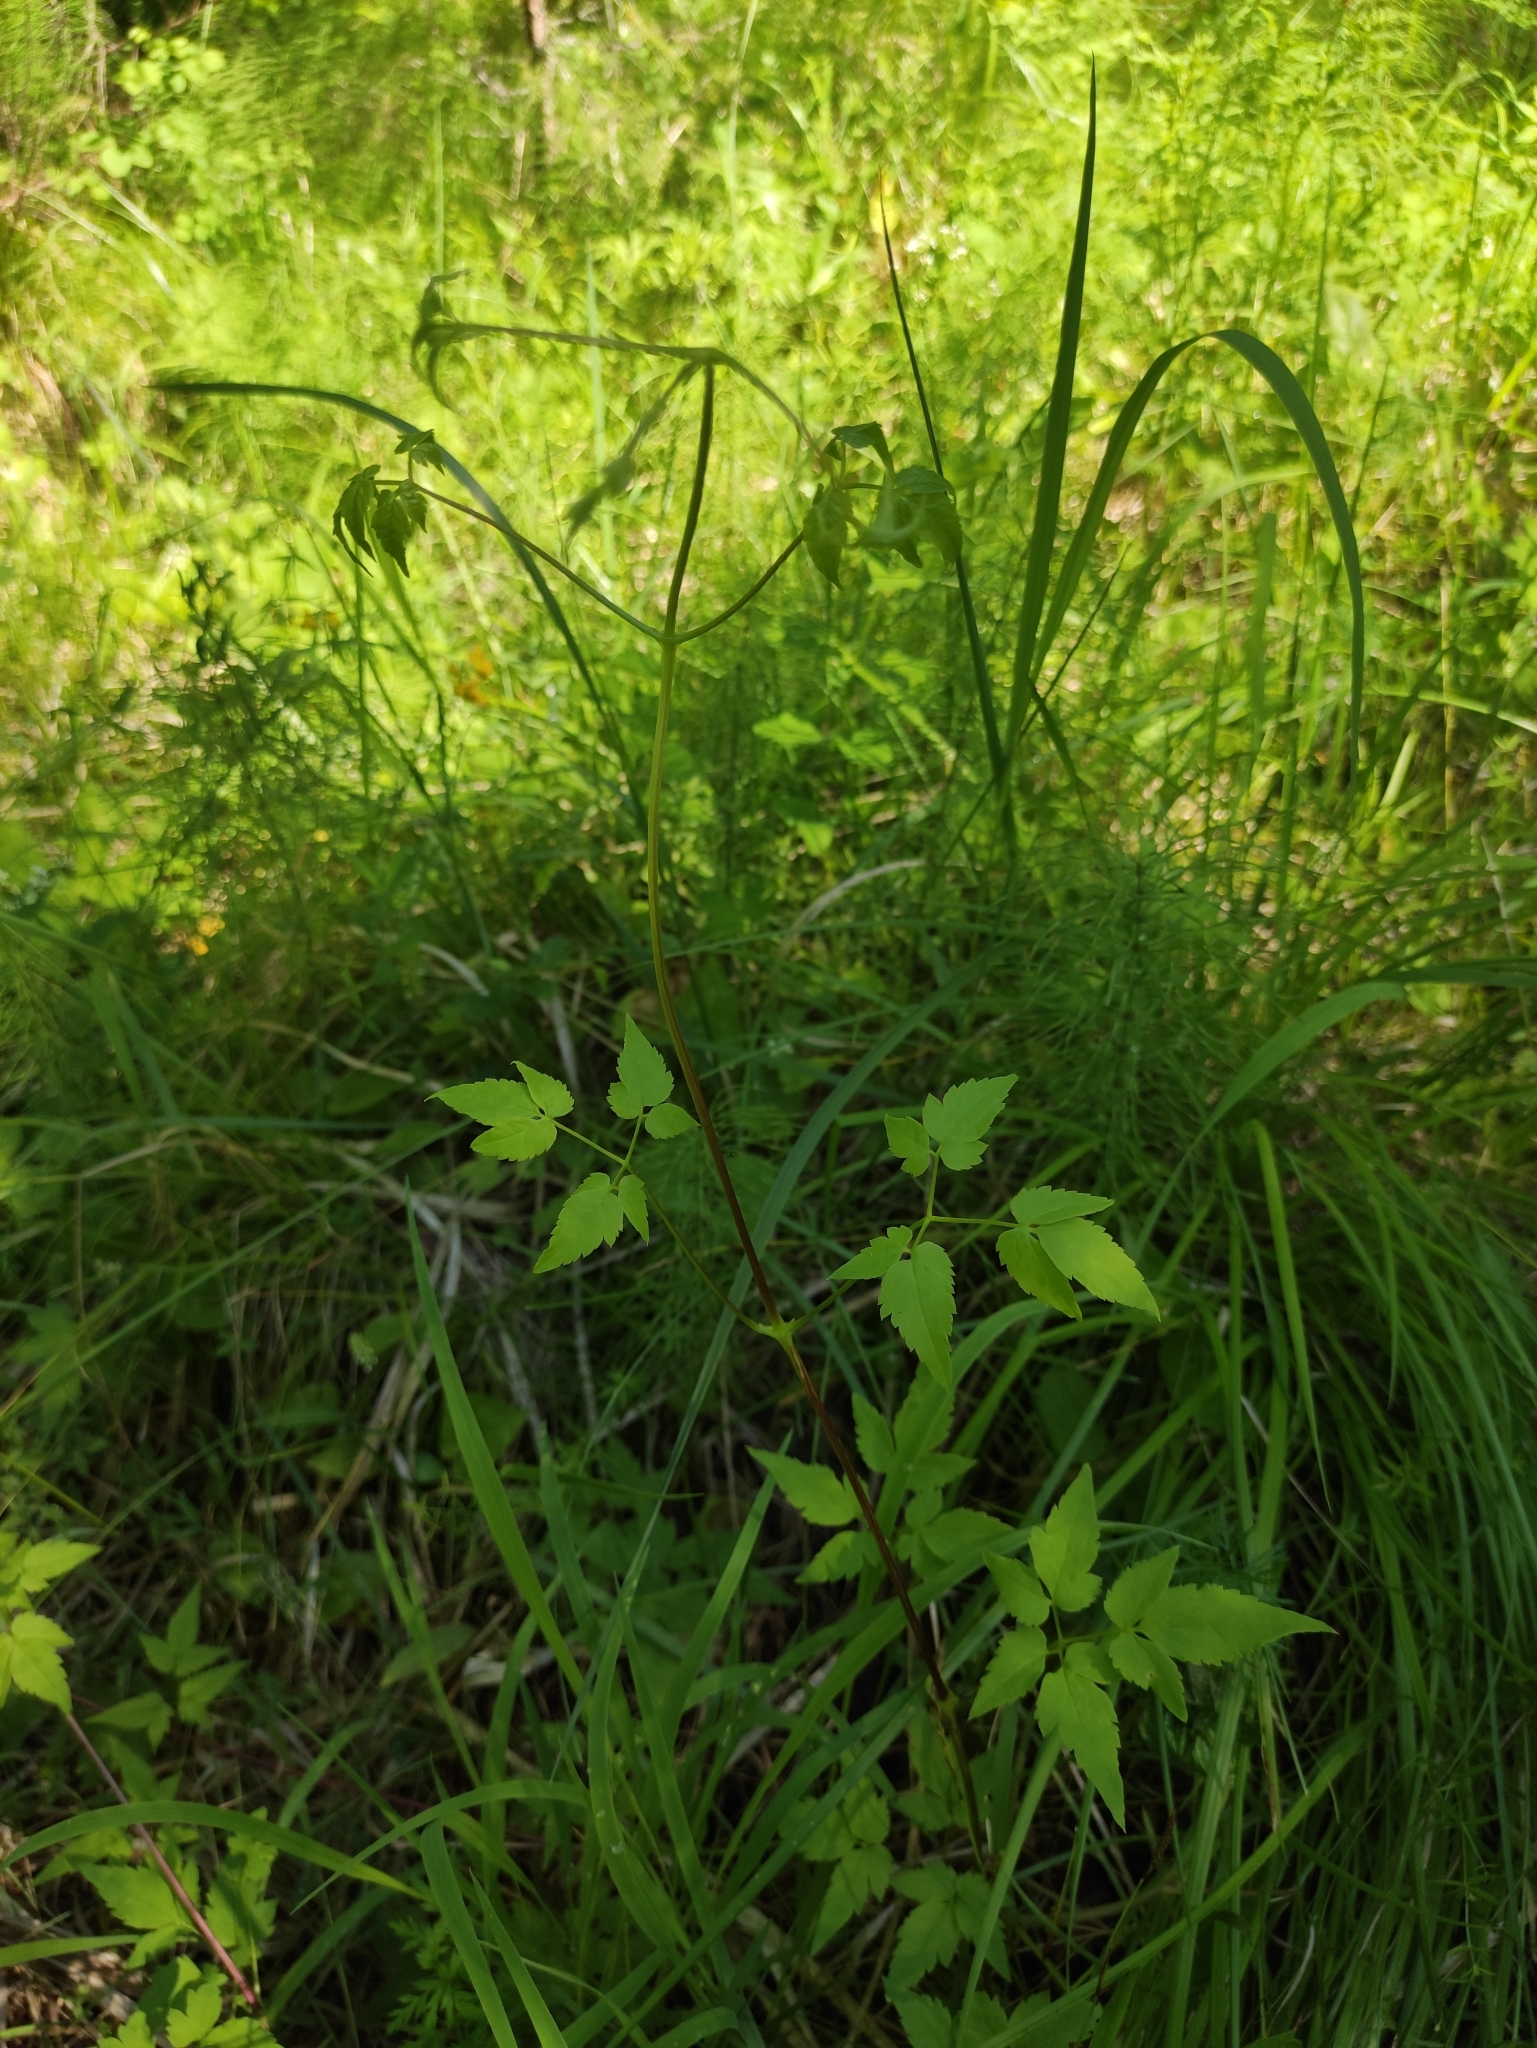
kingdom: Plantae
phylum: Tracheophyta
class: Magnoliopsida
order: Ranunculales
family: Ranunculaceae
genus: Clematis
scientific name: Clematis sibirica
